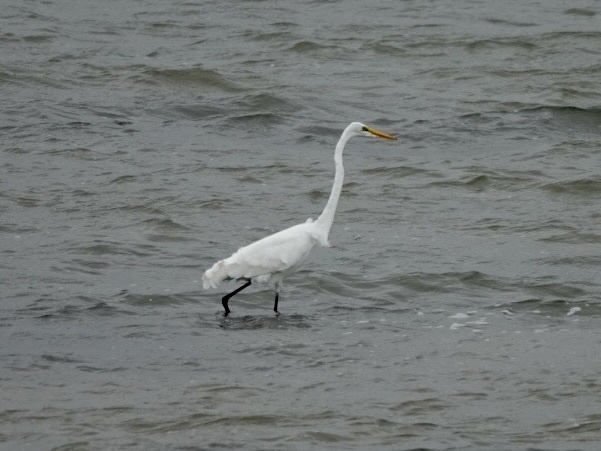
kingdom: Animalia
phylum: Chordata
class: Aves
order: Pelecaniformes
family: Ardeidae
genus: Ardea
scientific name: Ardea alba
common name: Great egret
